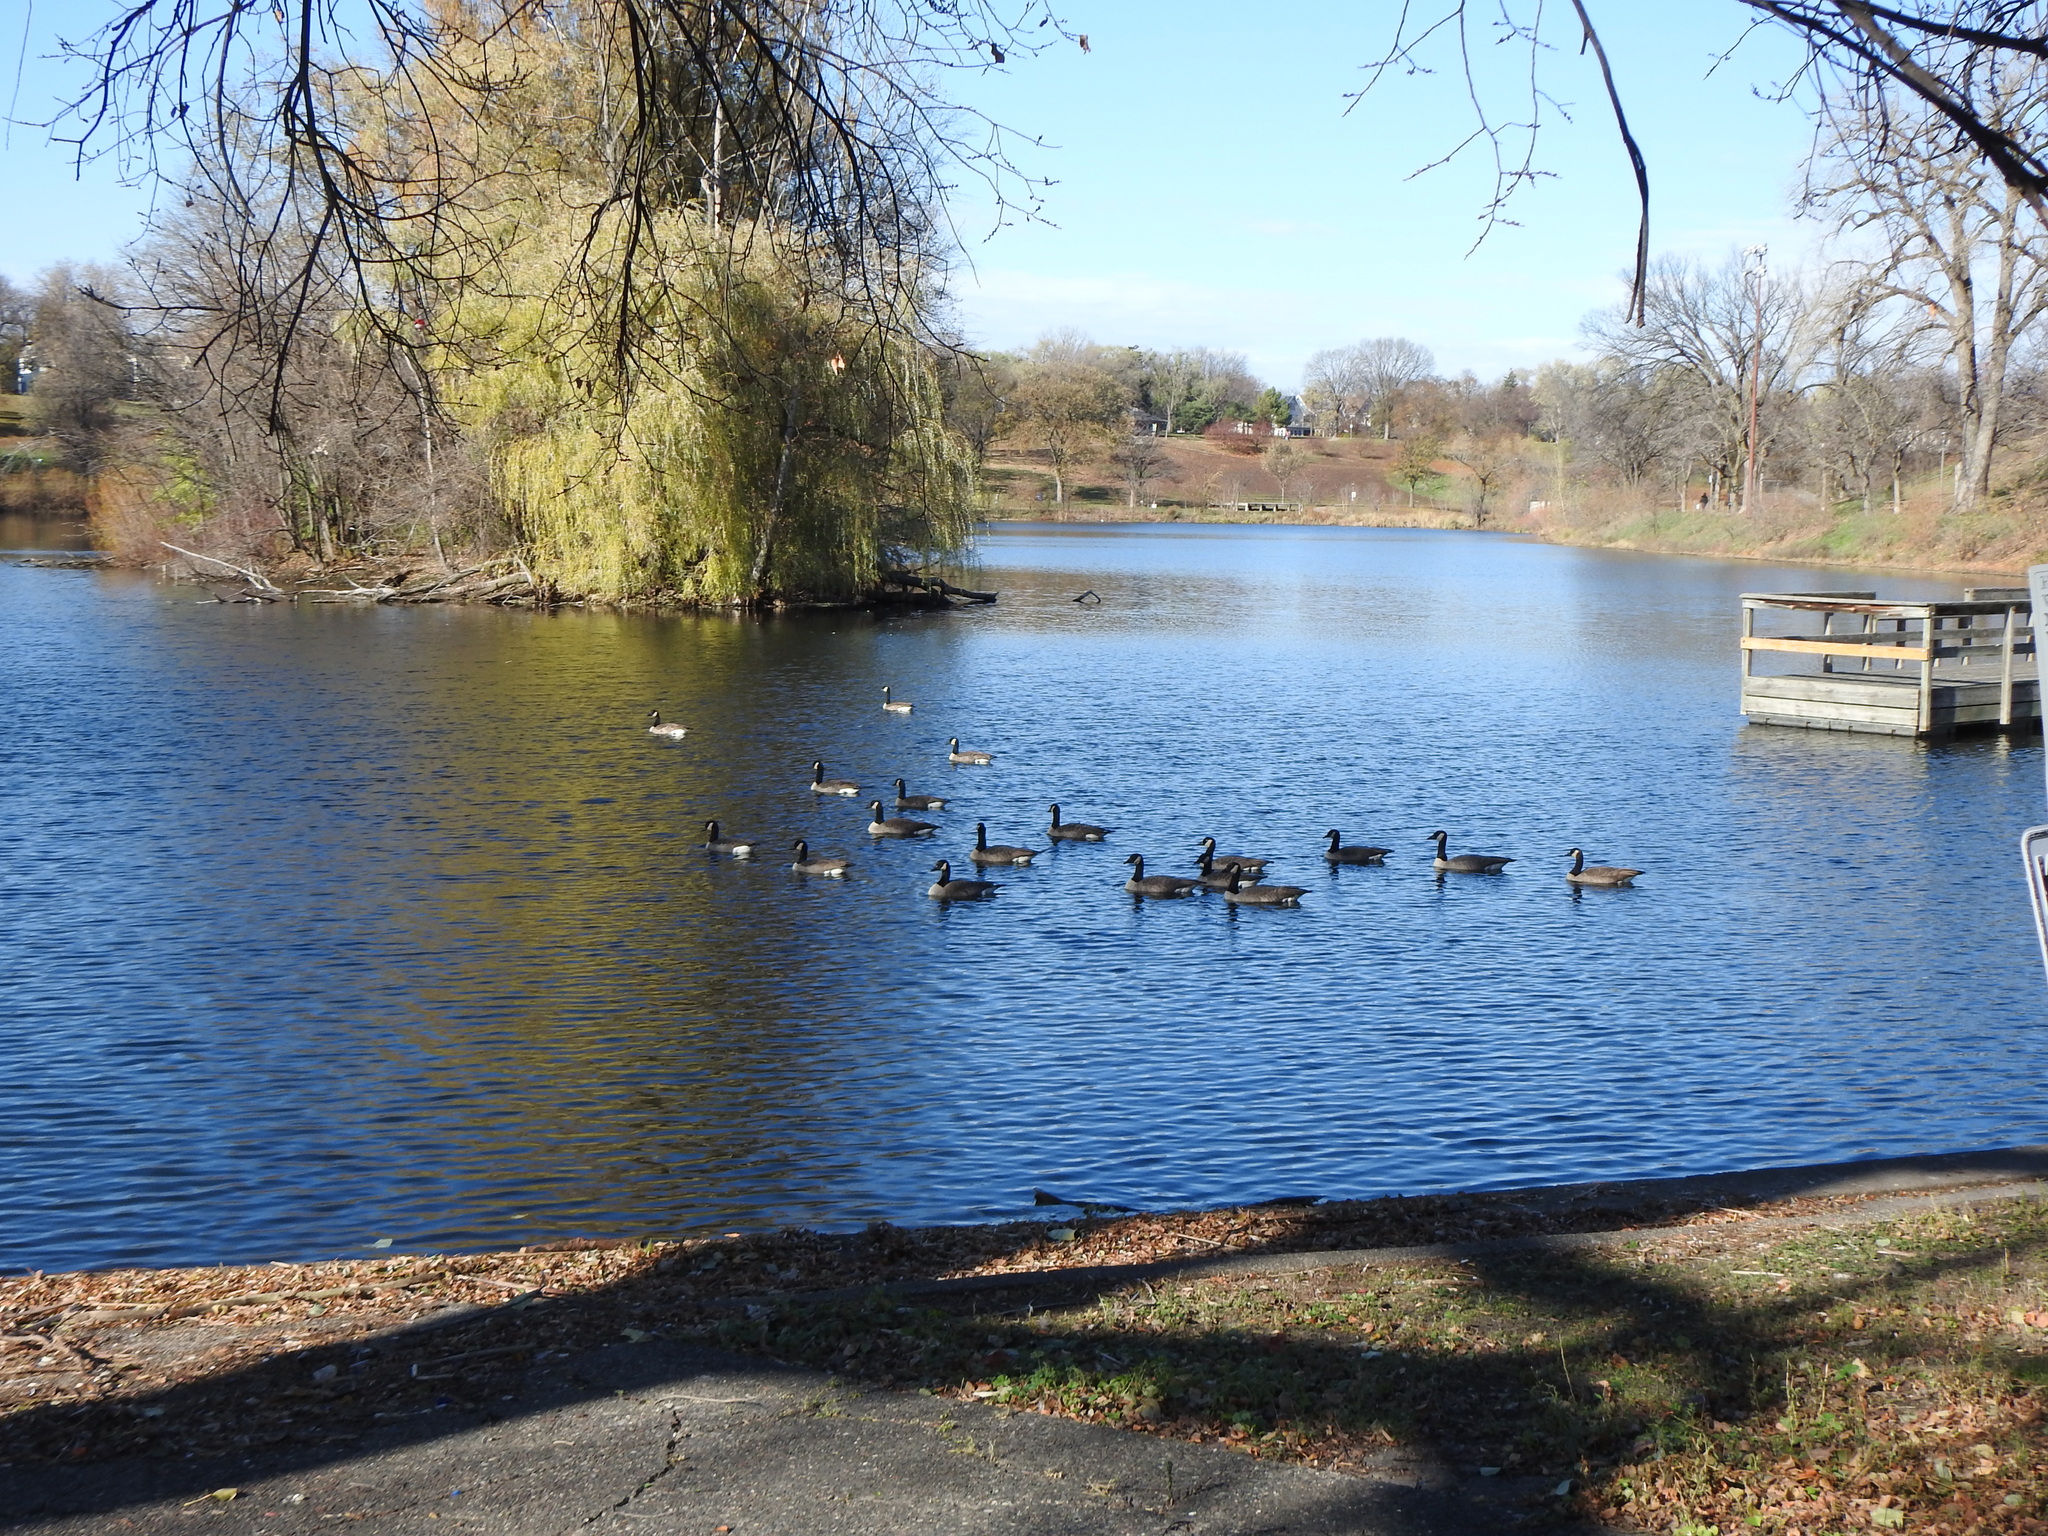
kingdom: Animalia
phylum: Chordata
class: Aves
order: Anseriformes
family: Anatidae
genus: Branta
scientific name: Branta canadensis
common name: Canada goose
